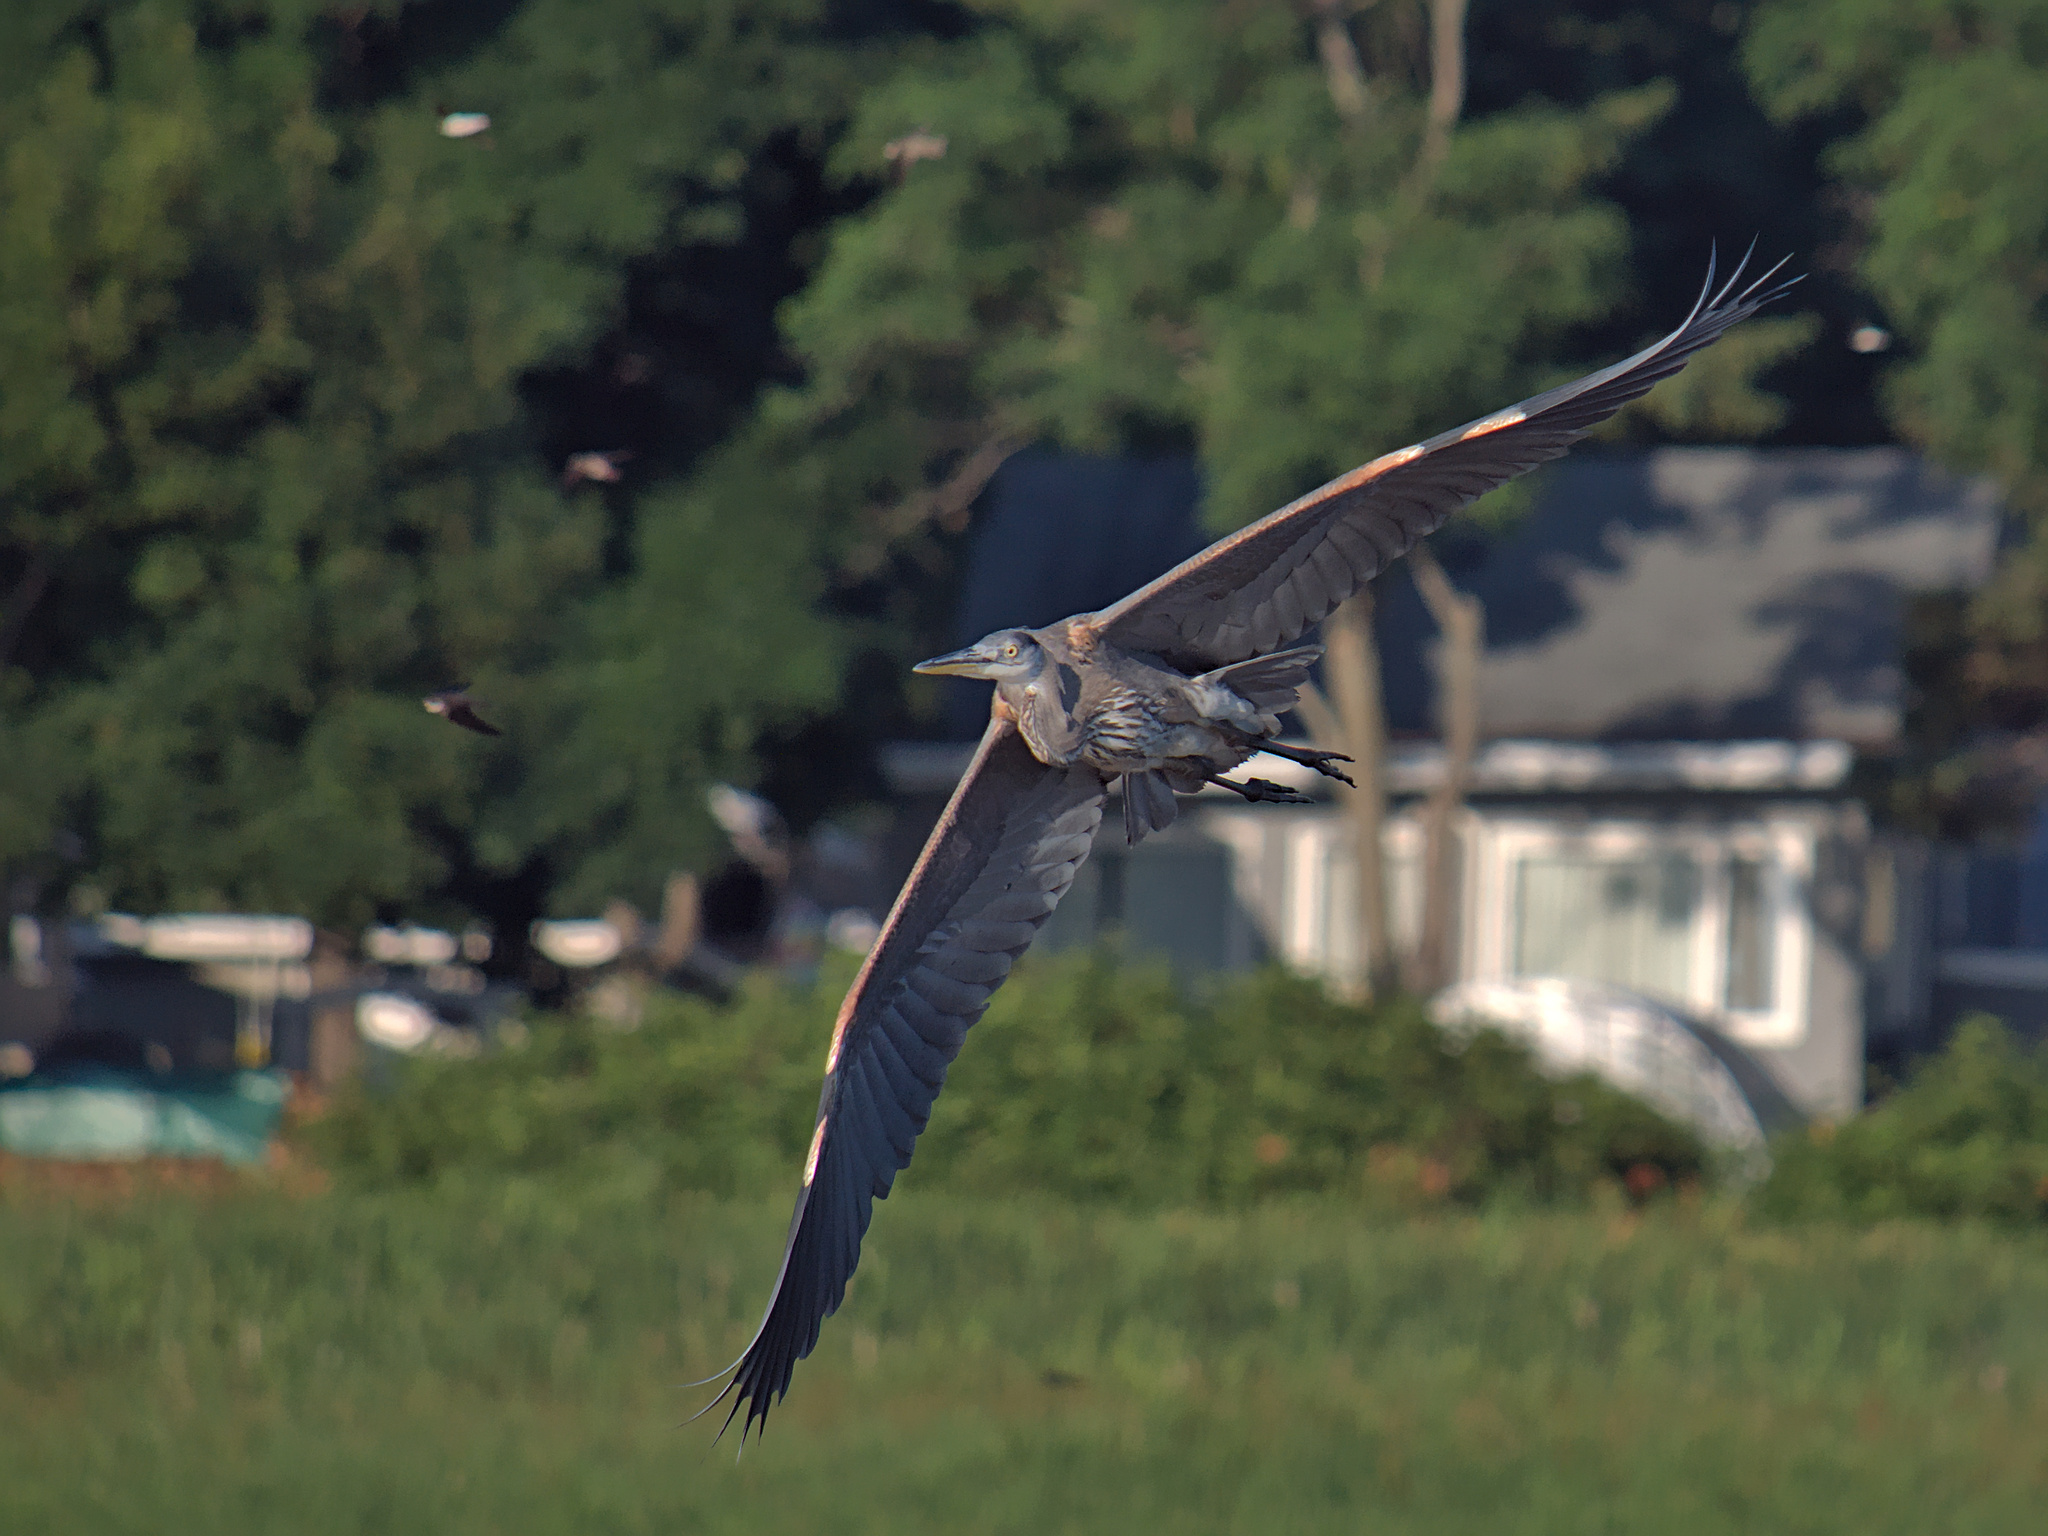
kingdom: Animalia
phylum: Chordata
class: Aves
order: Pelecaniformes
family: Ardeidae
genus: Ardea
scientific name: Ardea herodias
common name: Great blue heron
